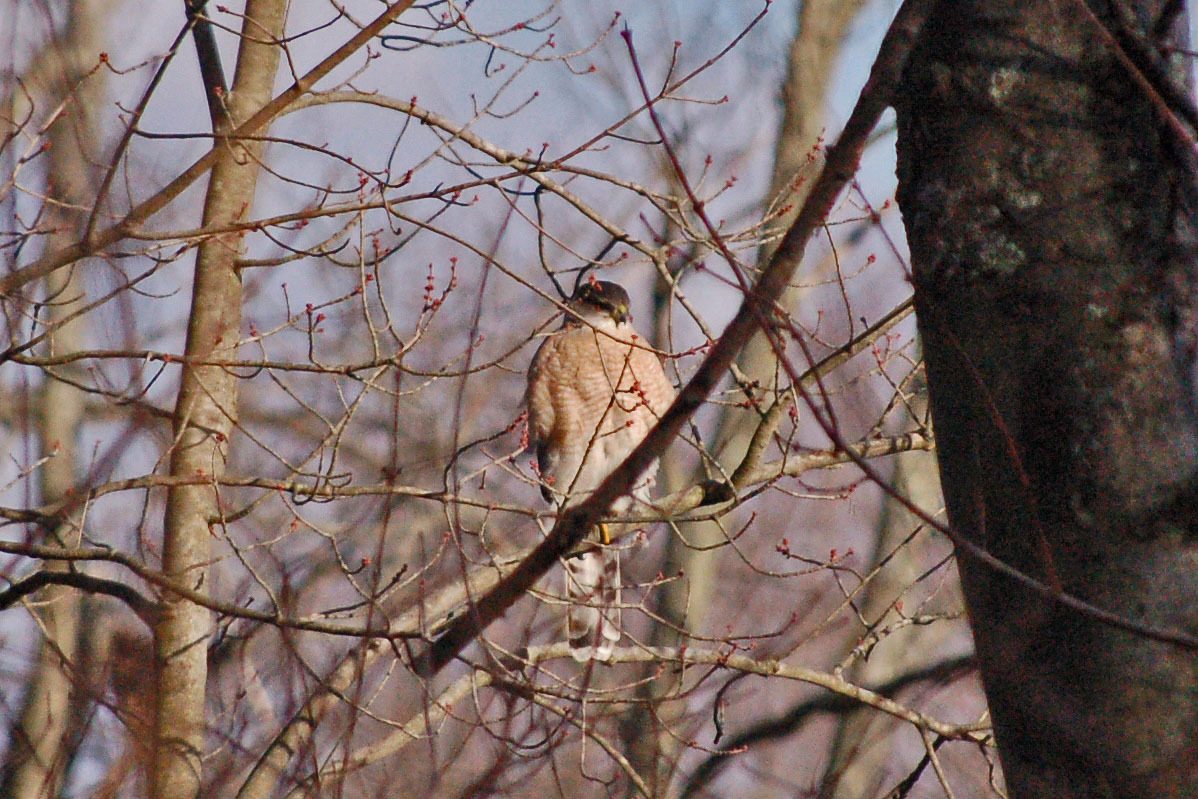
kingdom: Animalia
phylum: Chordata
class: Aves
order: Accipitriformes
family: Accipitridae
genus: Accipiter
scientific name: Accipiter cooperii
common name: Cooper's hawk
